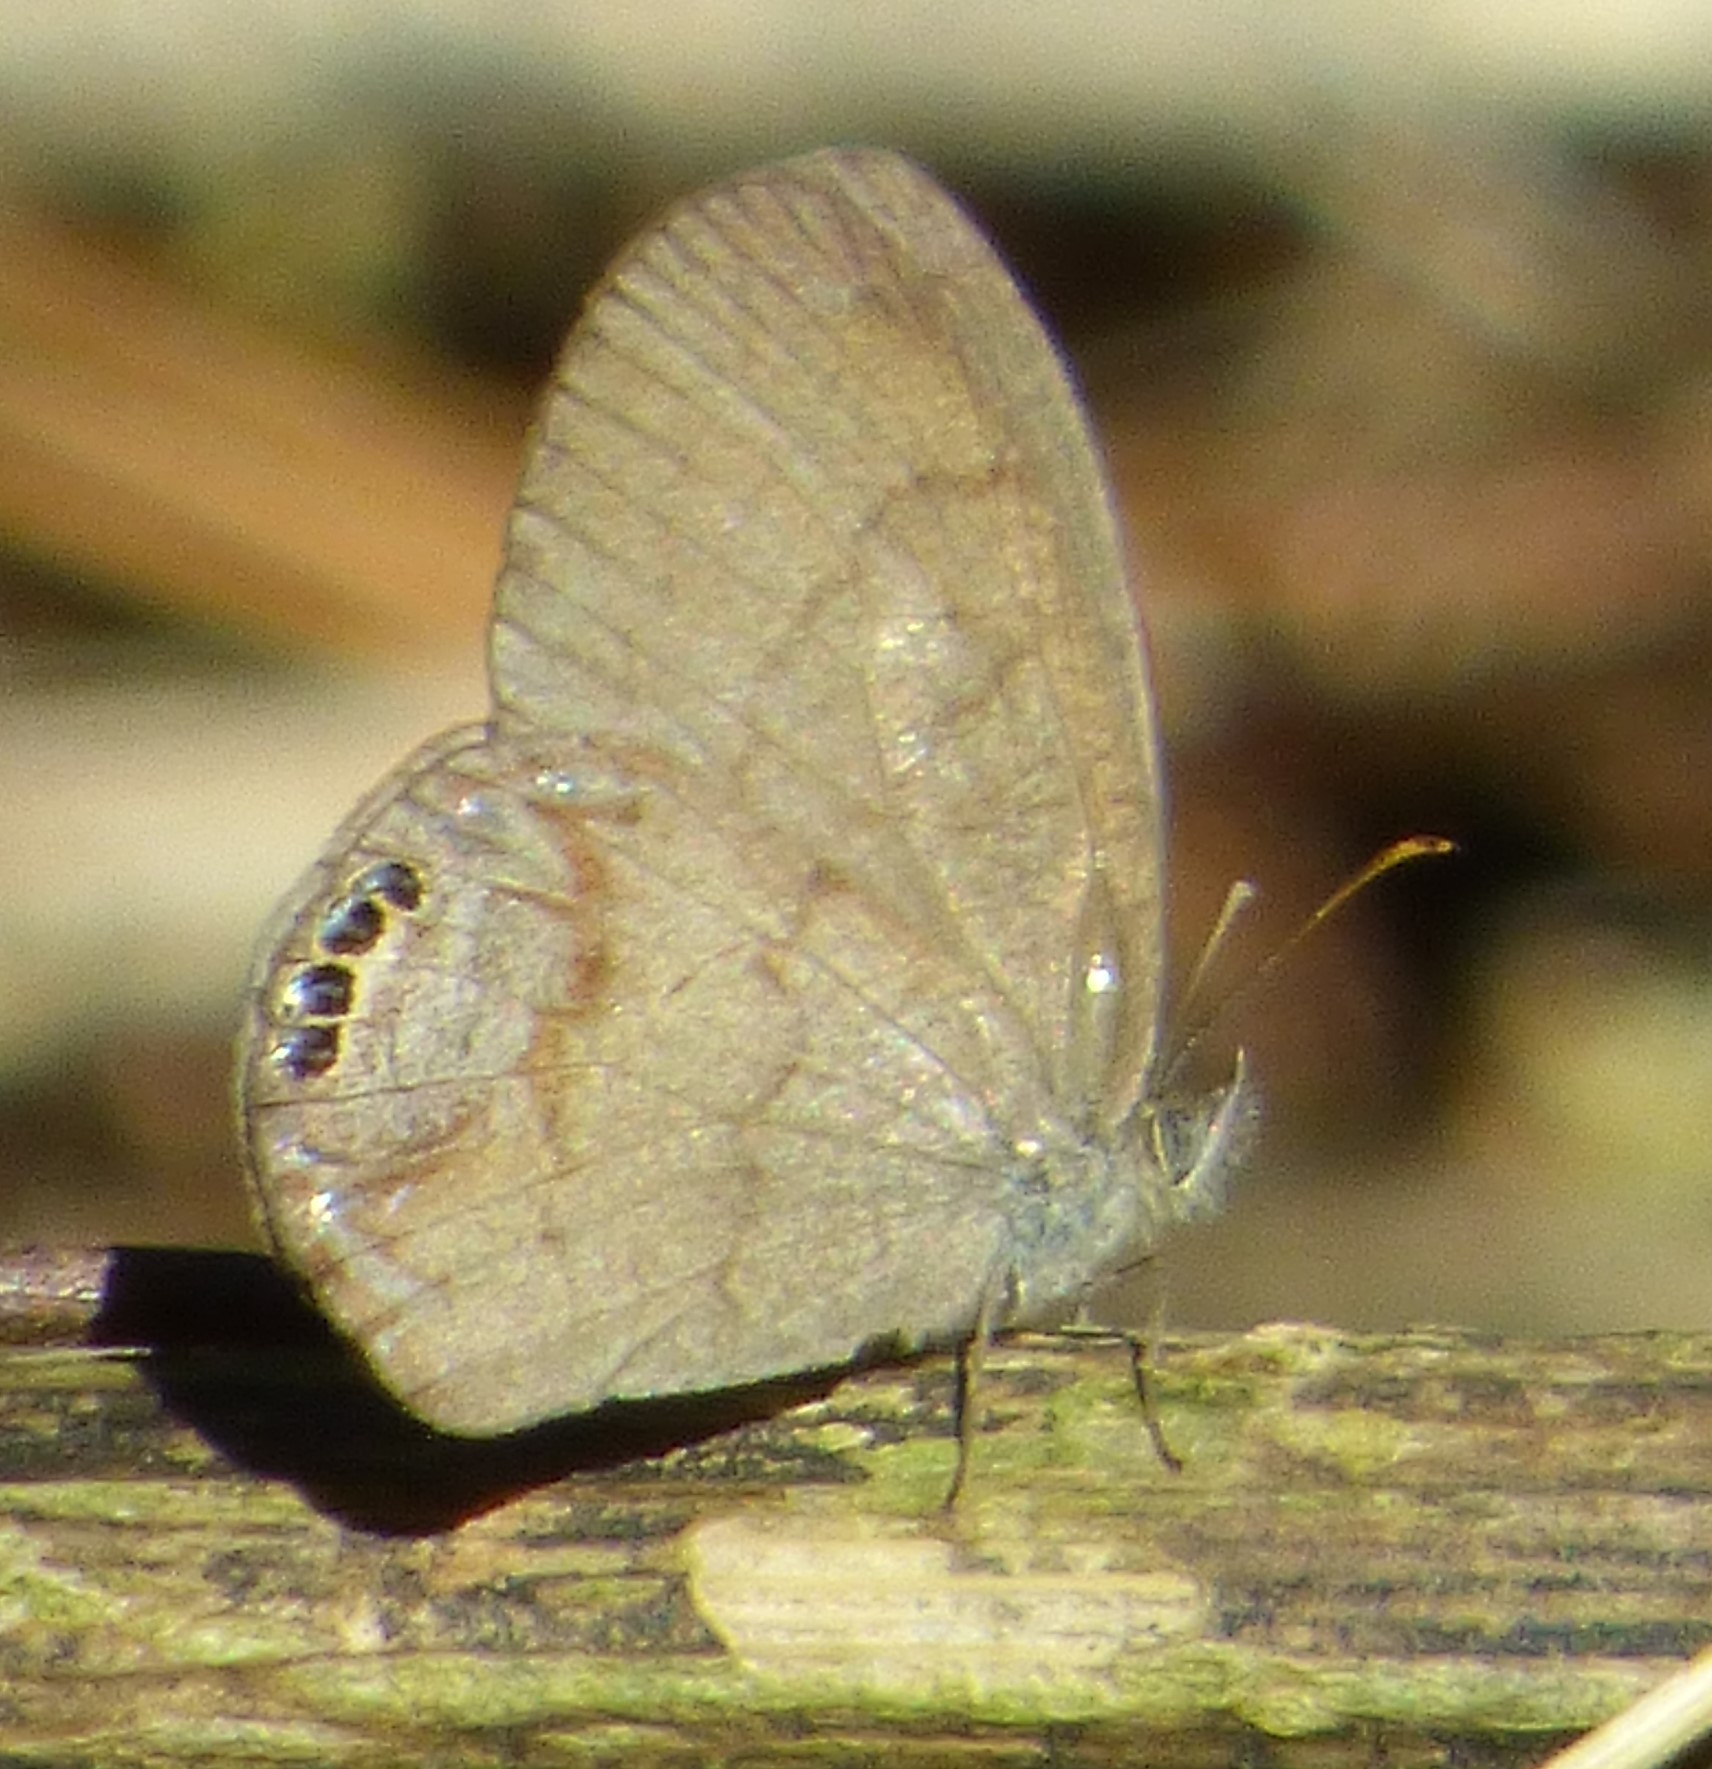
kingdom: Animalia
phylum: Arthropoda
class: Insecta
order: Lepidoptera
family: Nymphalidae
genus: Euptychia
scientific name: Euptychia cornelius
